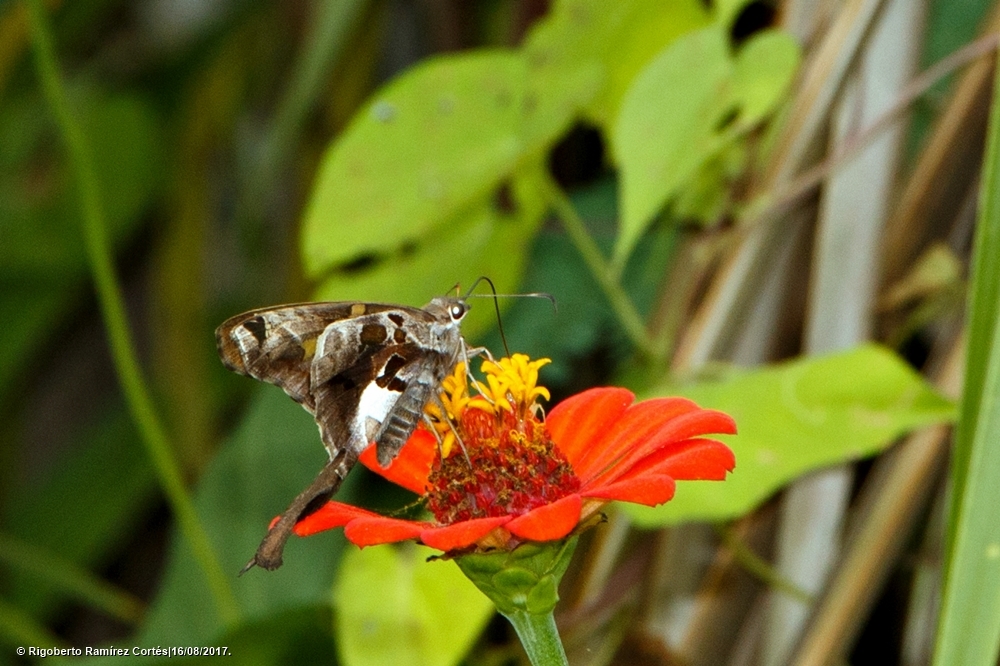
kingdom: Animalia
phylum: Arthropoda
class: Insecta
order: Lepidoptera
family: Hesperiidae
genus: Chioides
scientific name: Chioides zilpa
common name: Zilpa longtail
